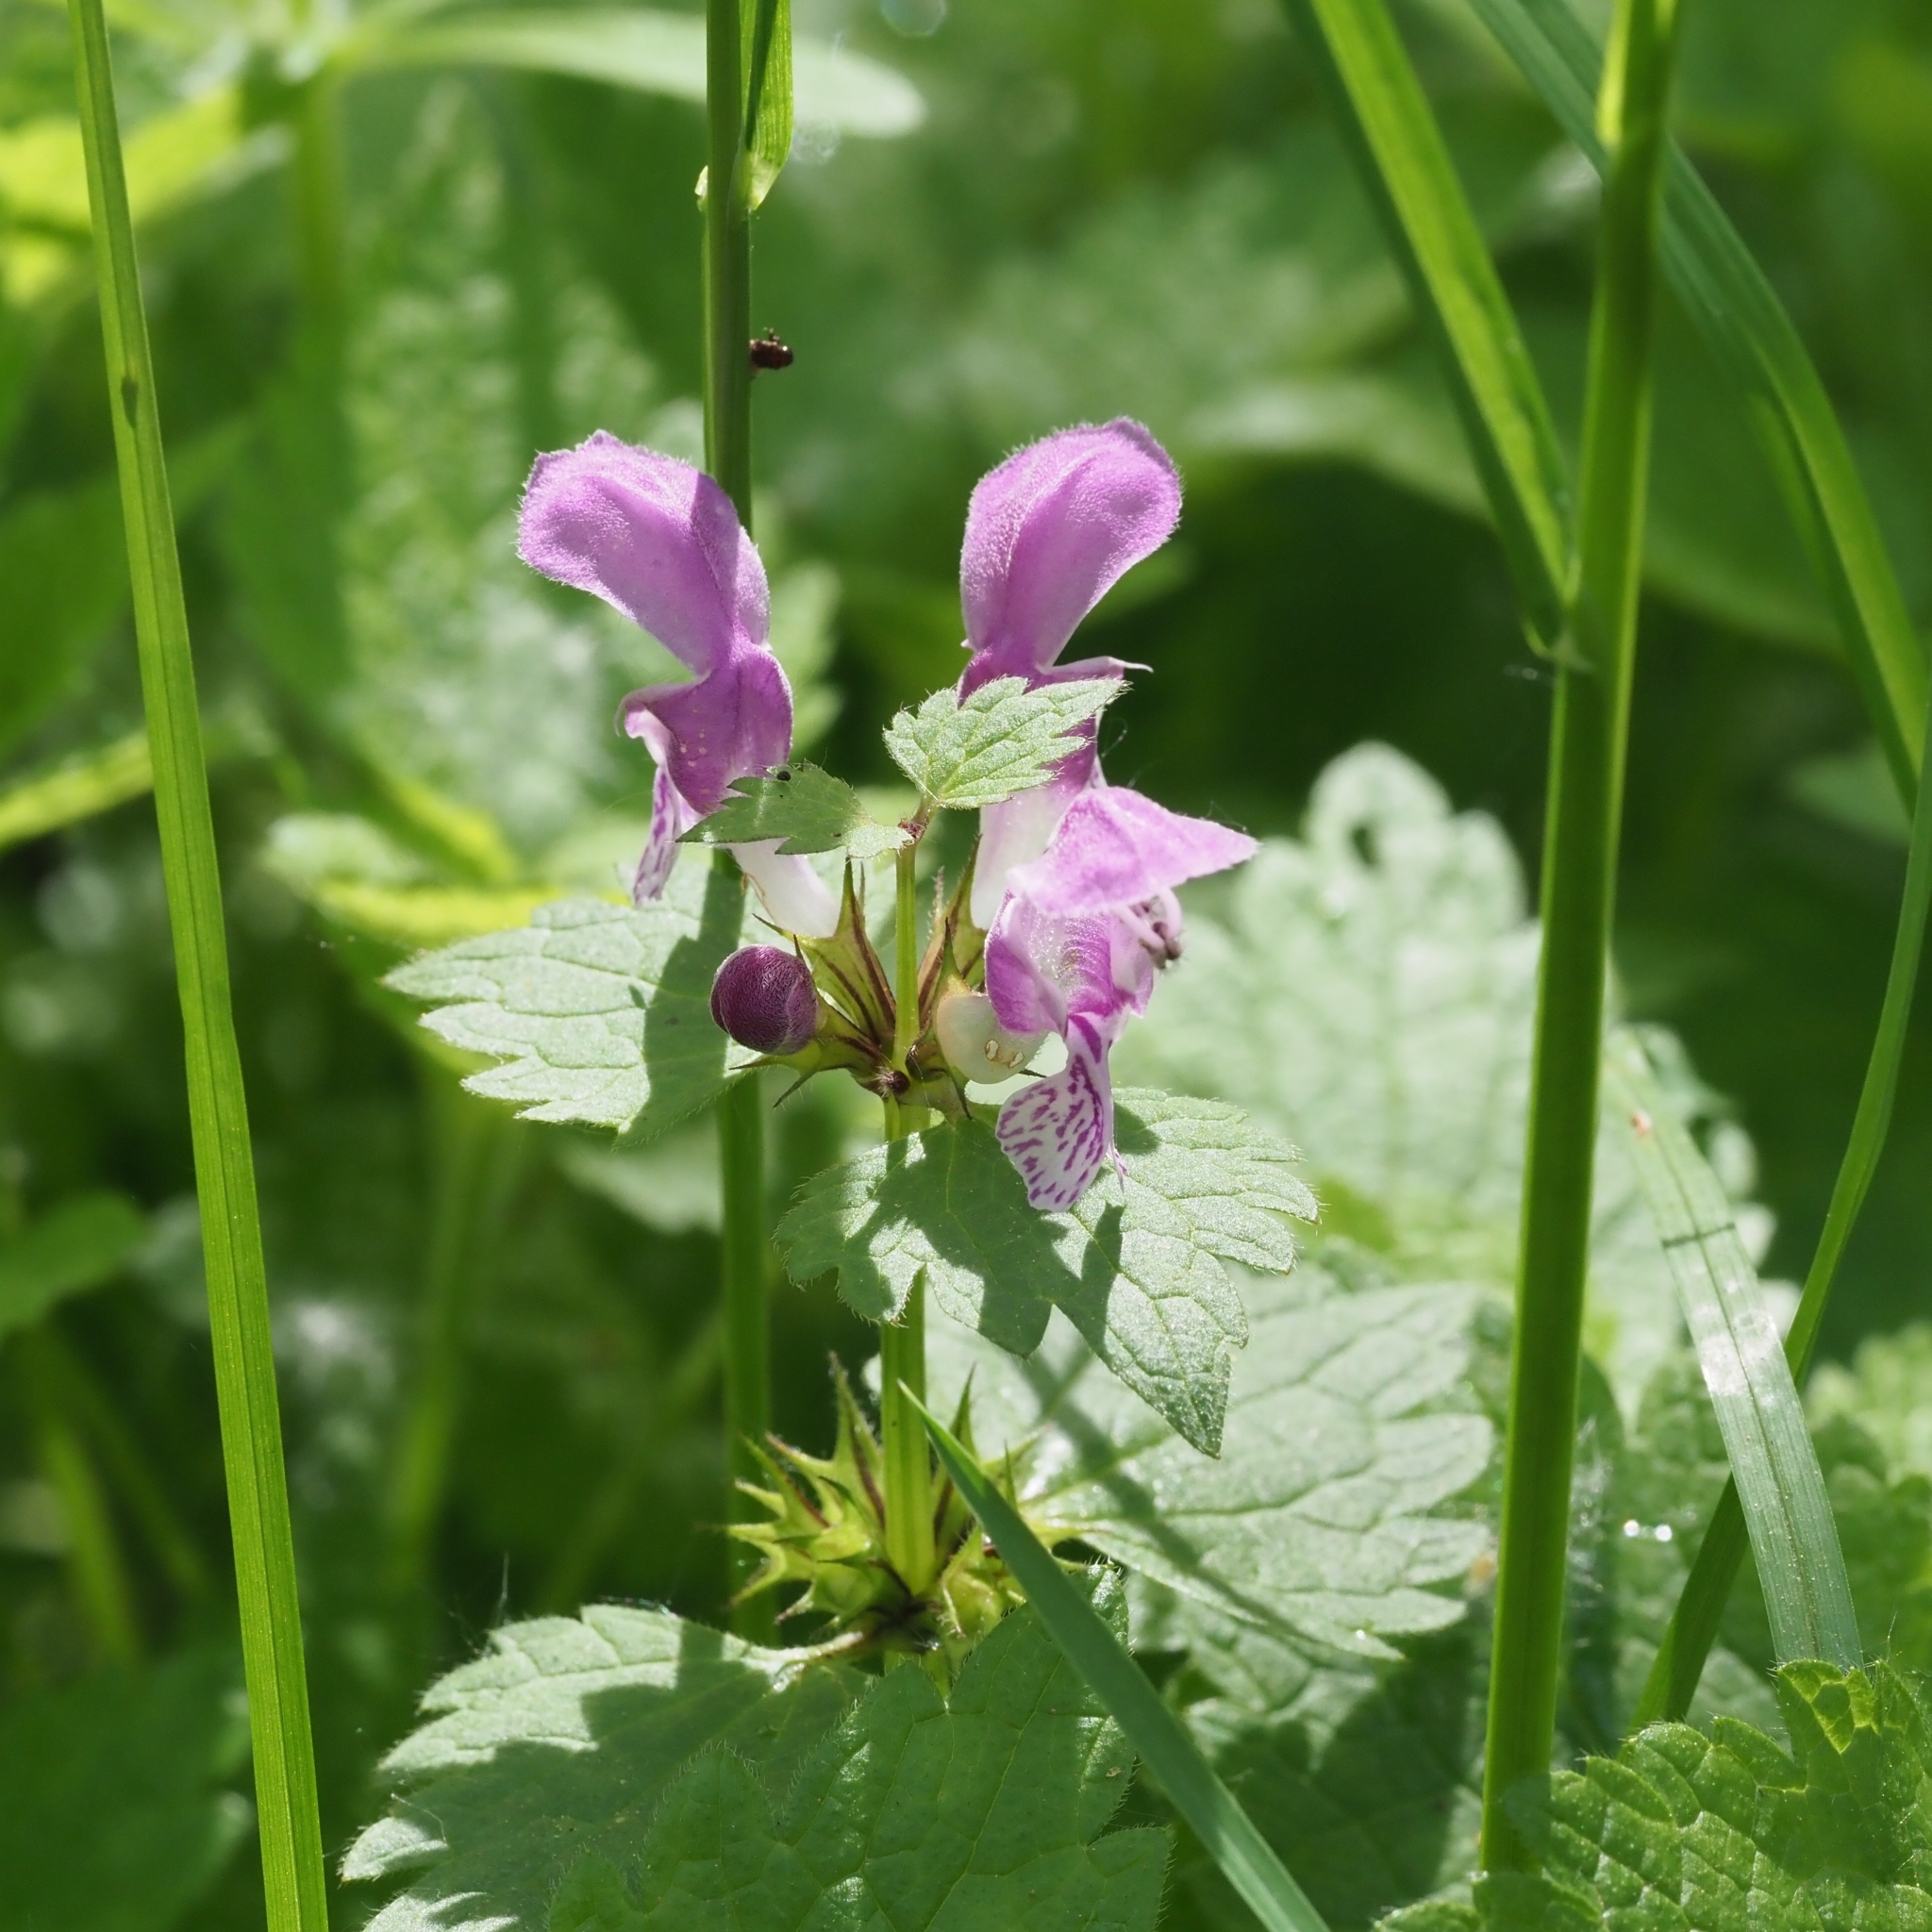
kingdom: Plantae
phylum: Tracheophyta
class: Magnoliopsida
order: Lamiales
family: Lamiaceae
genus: Lamium
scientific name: Lamium maculatum
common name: Spotted dead-nettle
